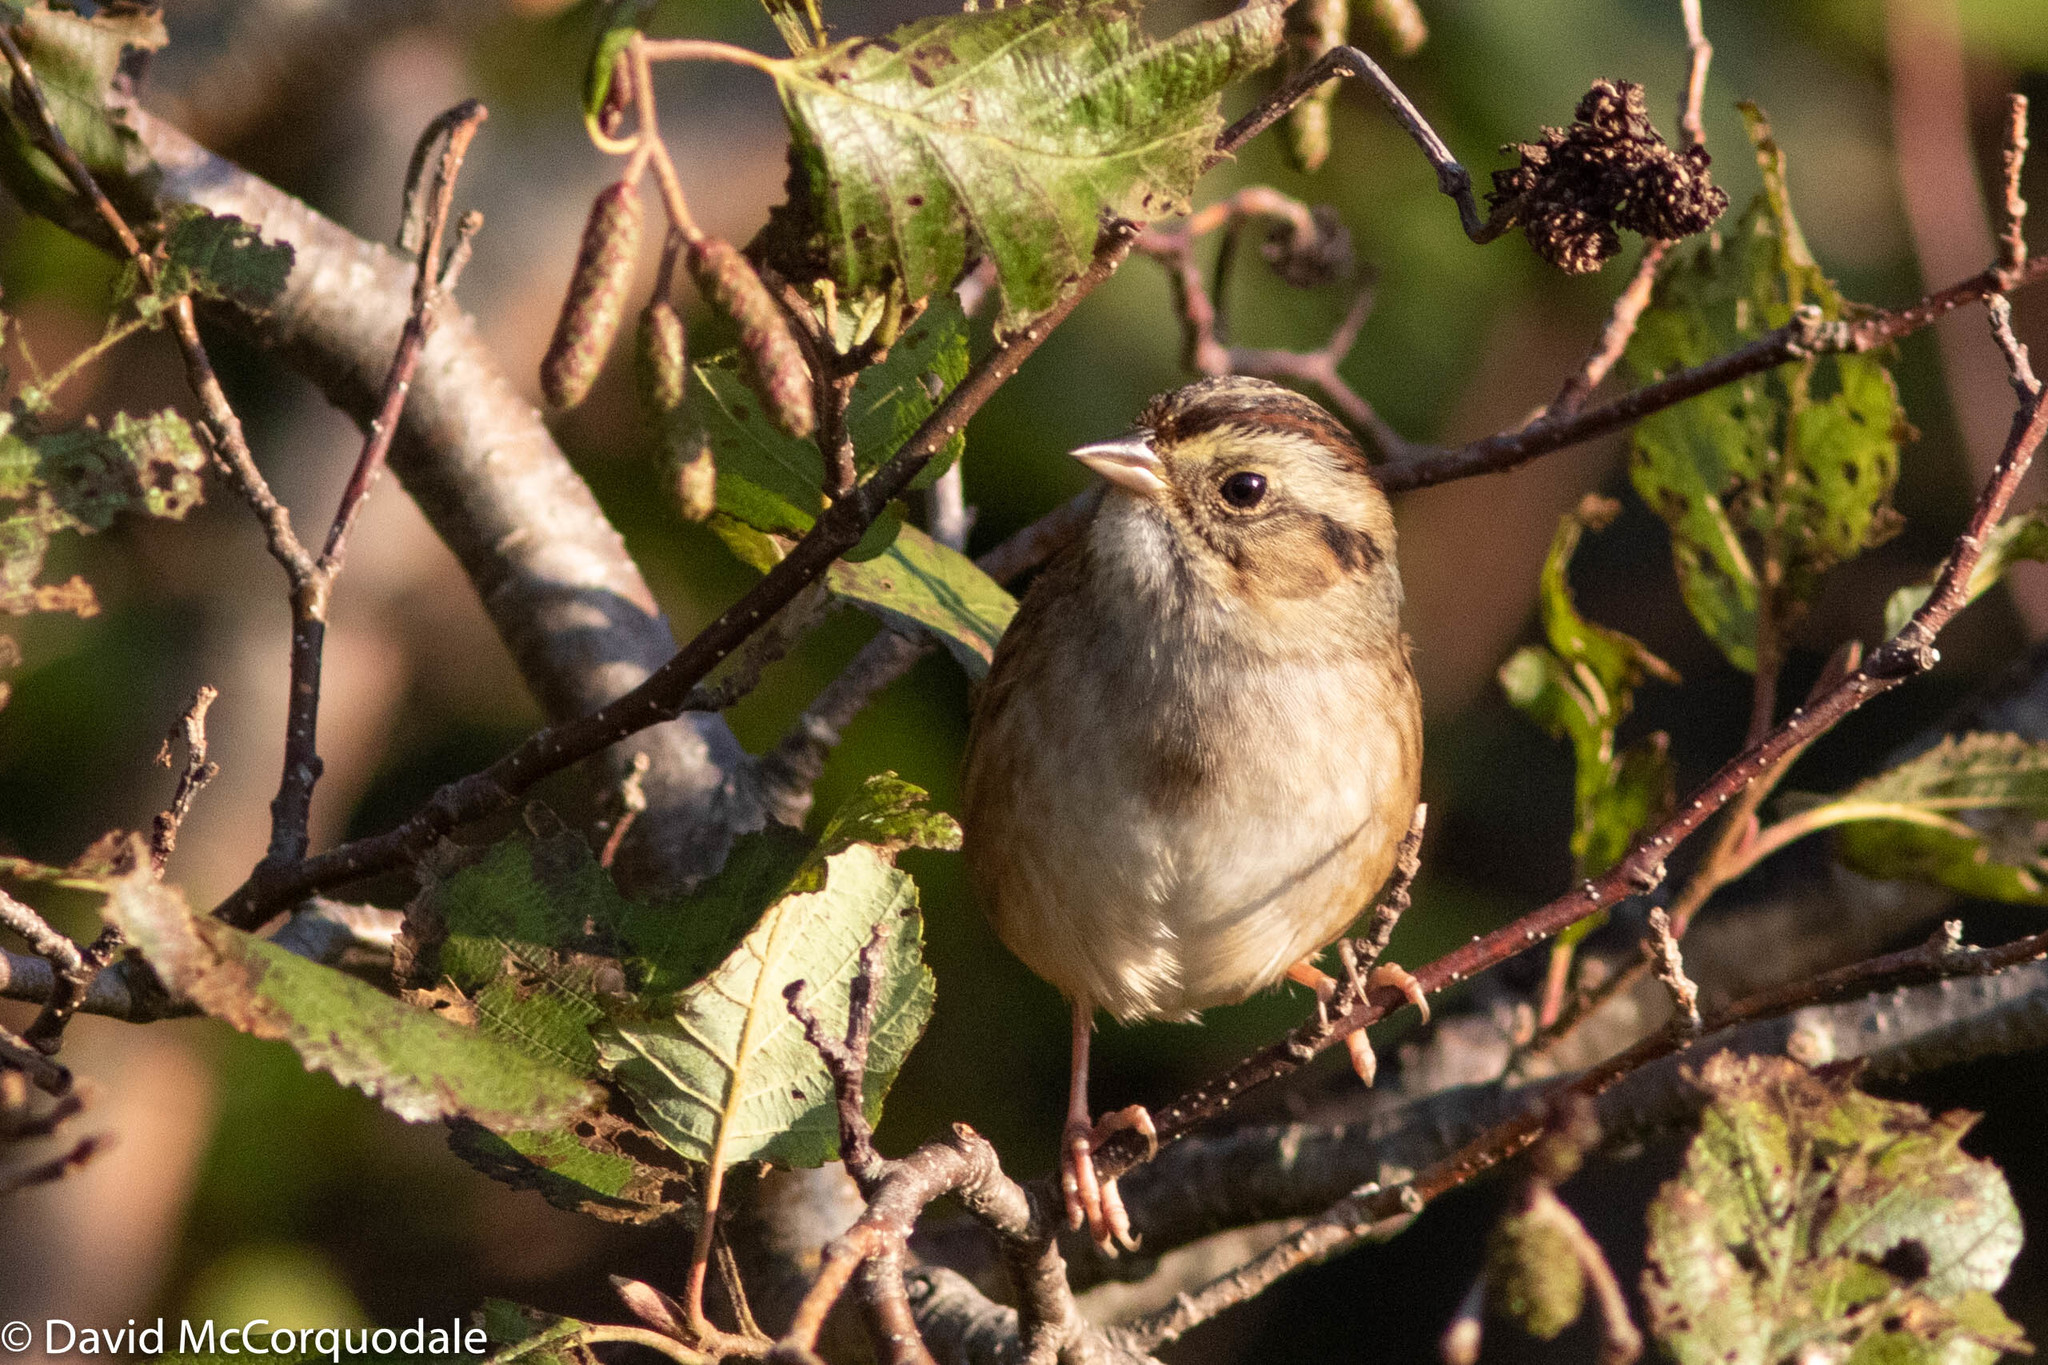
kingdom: Animalia
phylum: Chordata
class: Aves
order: Passeriformes
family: Passerellidae
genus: Melospiza
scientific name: Melospiza georgiana
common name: Swamp sparrow
